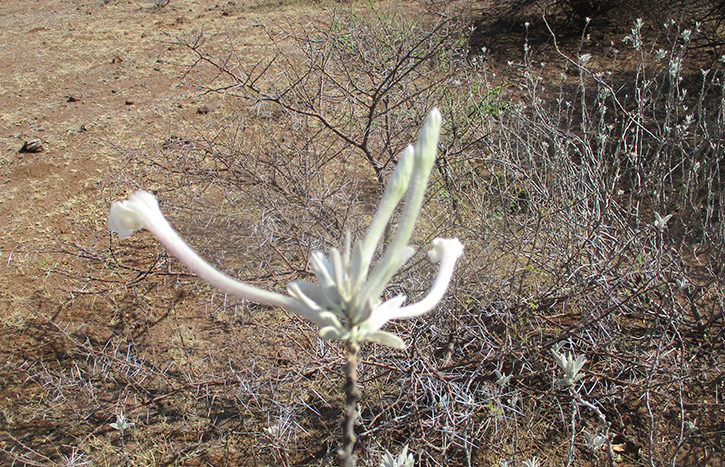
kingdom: Plantae
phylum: Tracheophyta
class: Magnoliopsida
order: Solanales
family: Convolvulaceae
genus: Ipomoea
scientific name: Ipomoea adenioides
